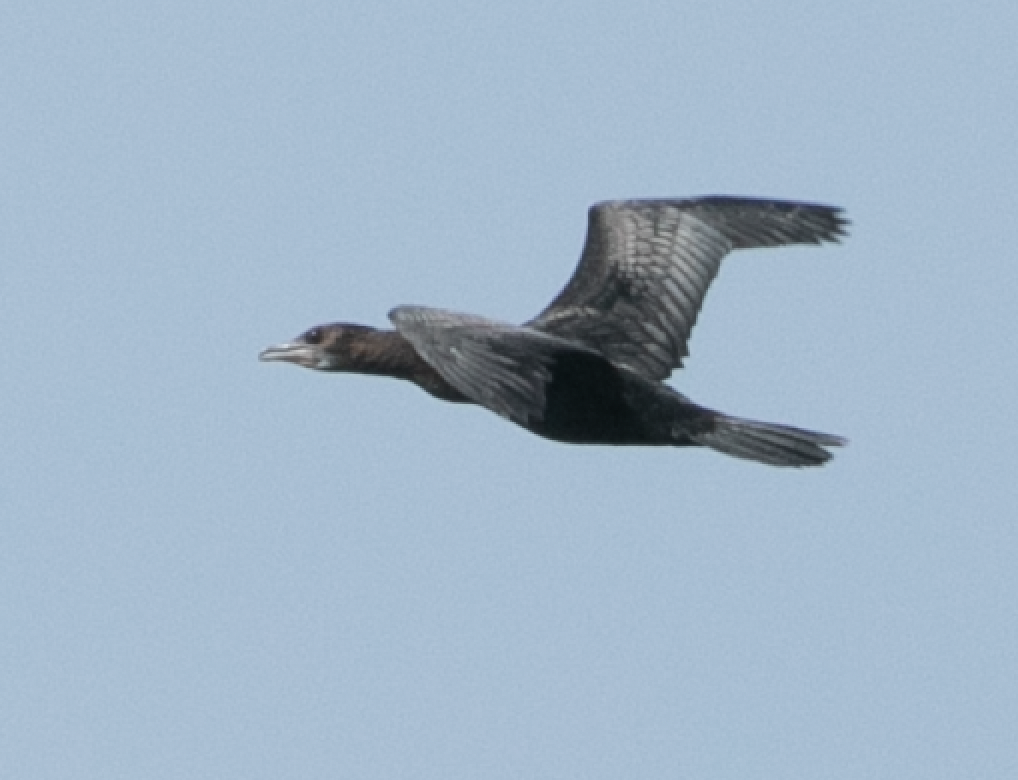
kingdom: Animalia
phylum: Chordata
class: Aves
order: Suliformes
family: Phalacrocoracidae
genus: Microcarbo
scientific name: Microcarbo pygmaeus
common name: Pygmy cormorant
